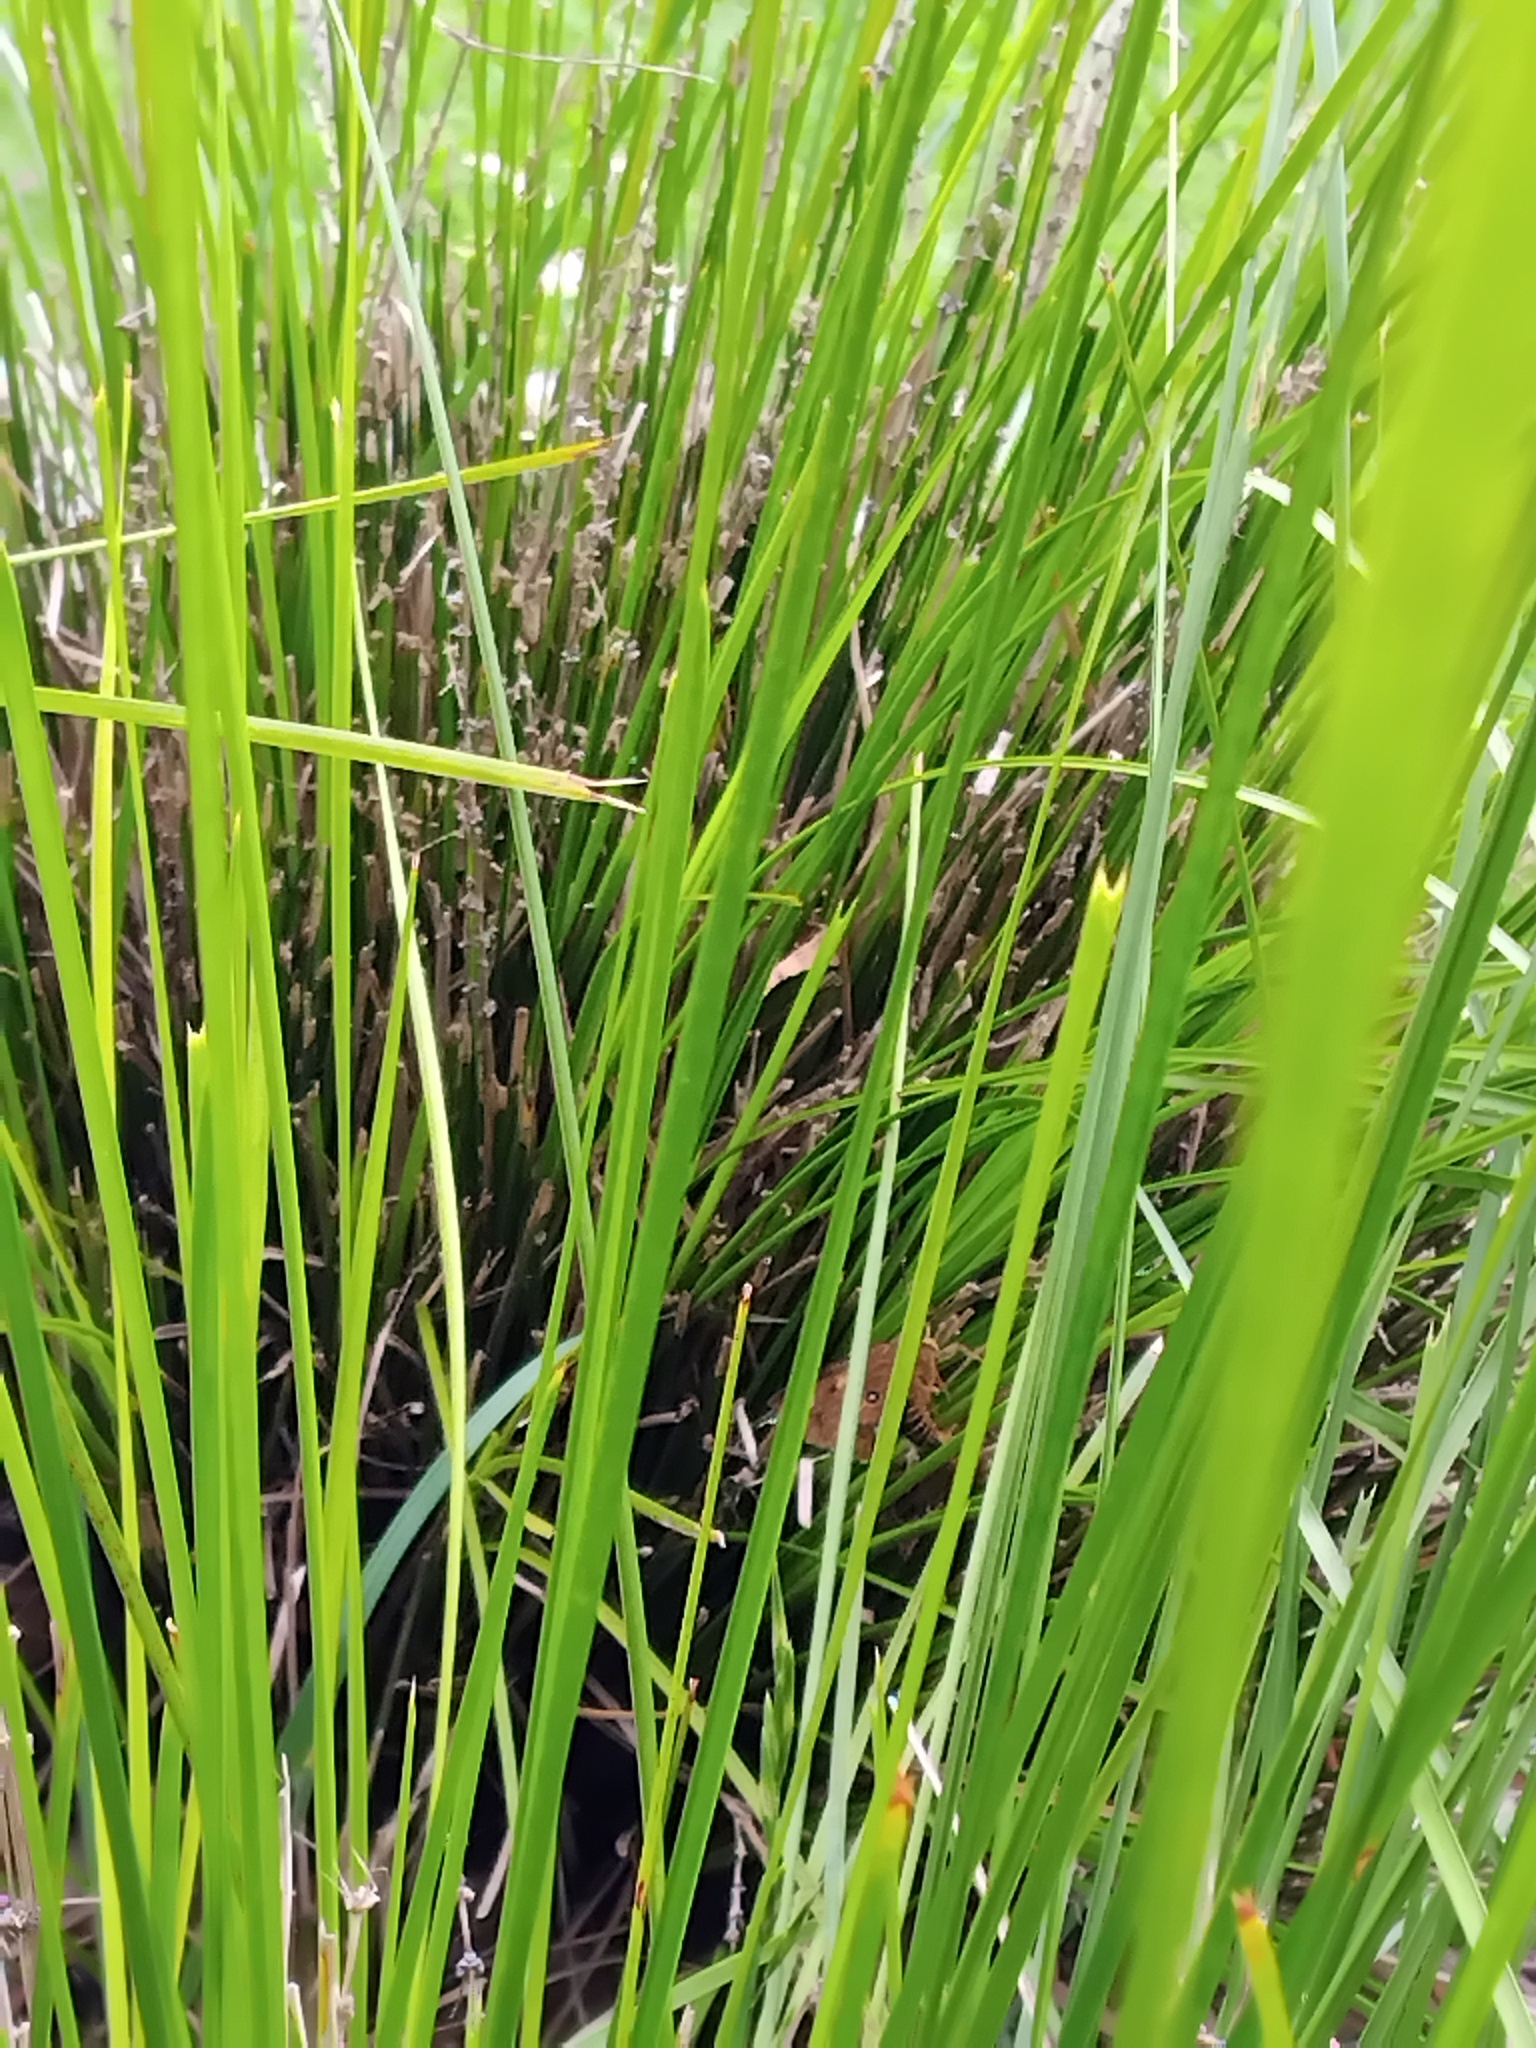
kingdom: Animalia
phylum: Arthropoda
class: Insecta
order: Lepidoptera
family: Hesperiidae
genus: Trapezites
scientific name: Trapezites symmomus
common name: Splendid ochre
